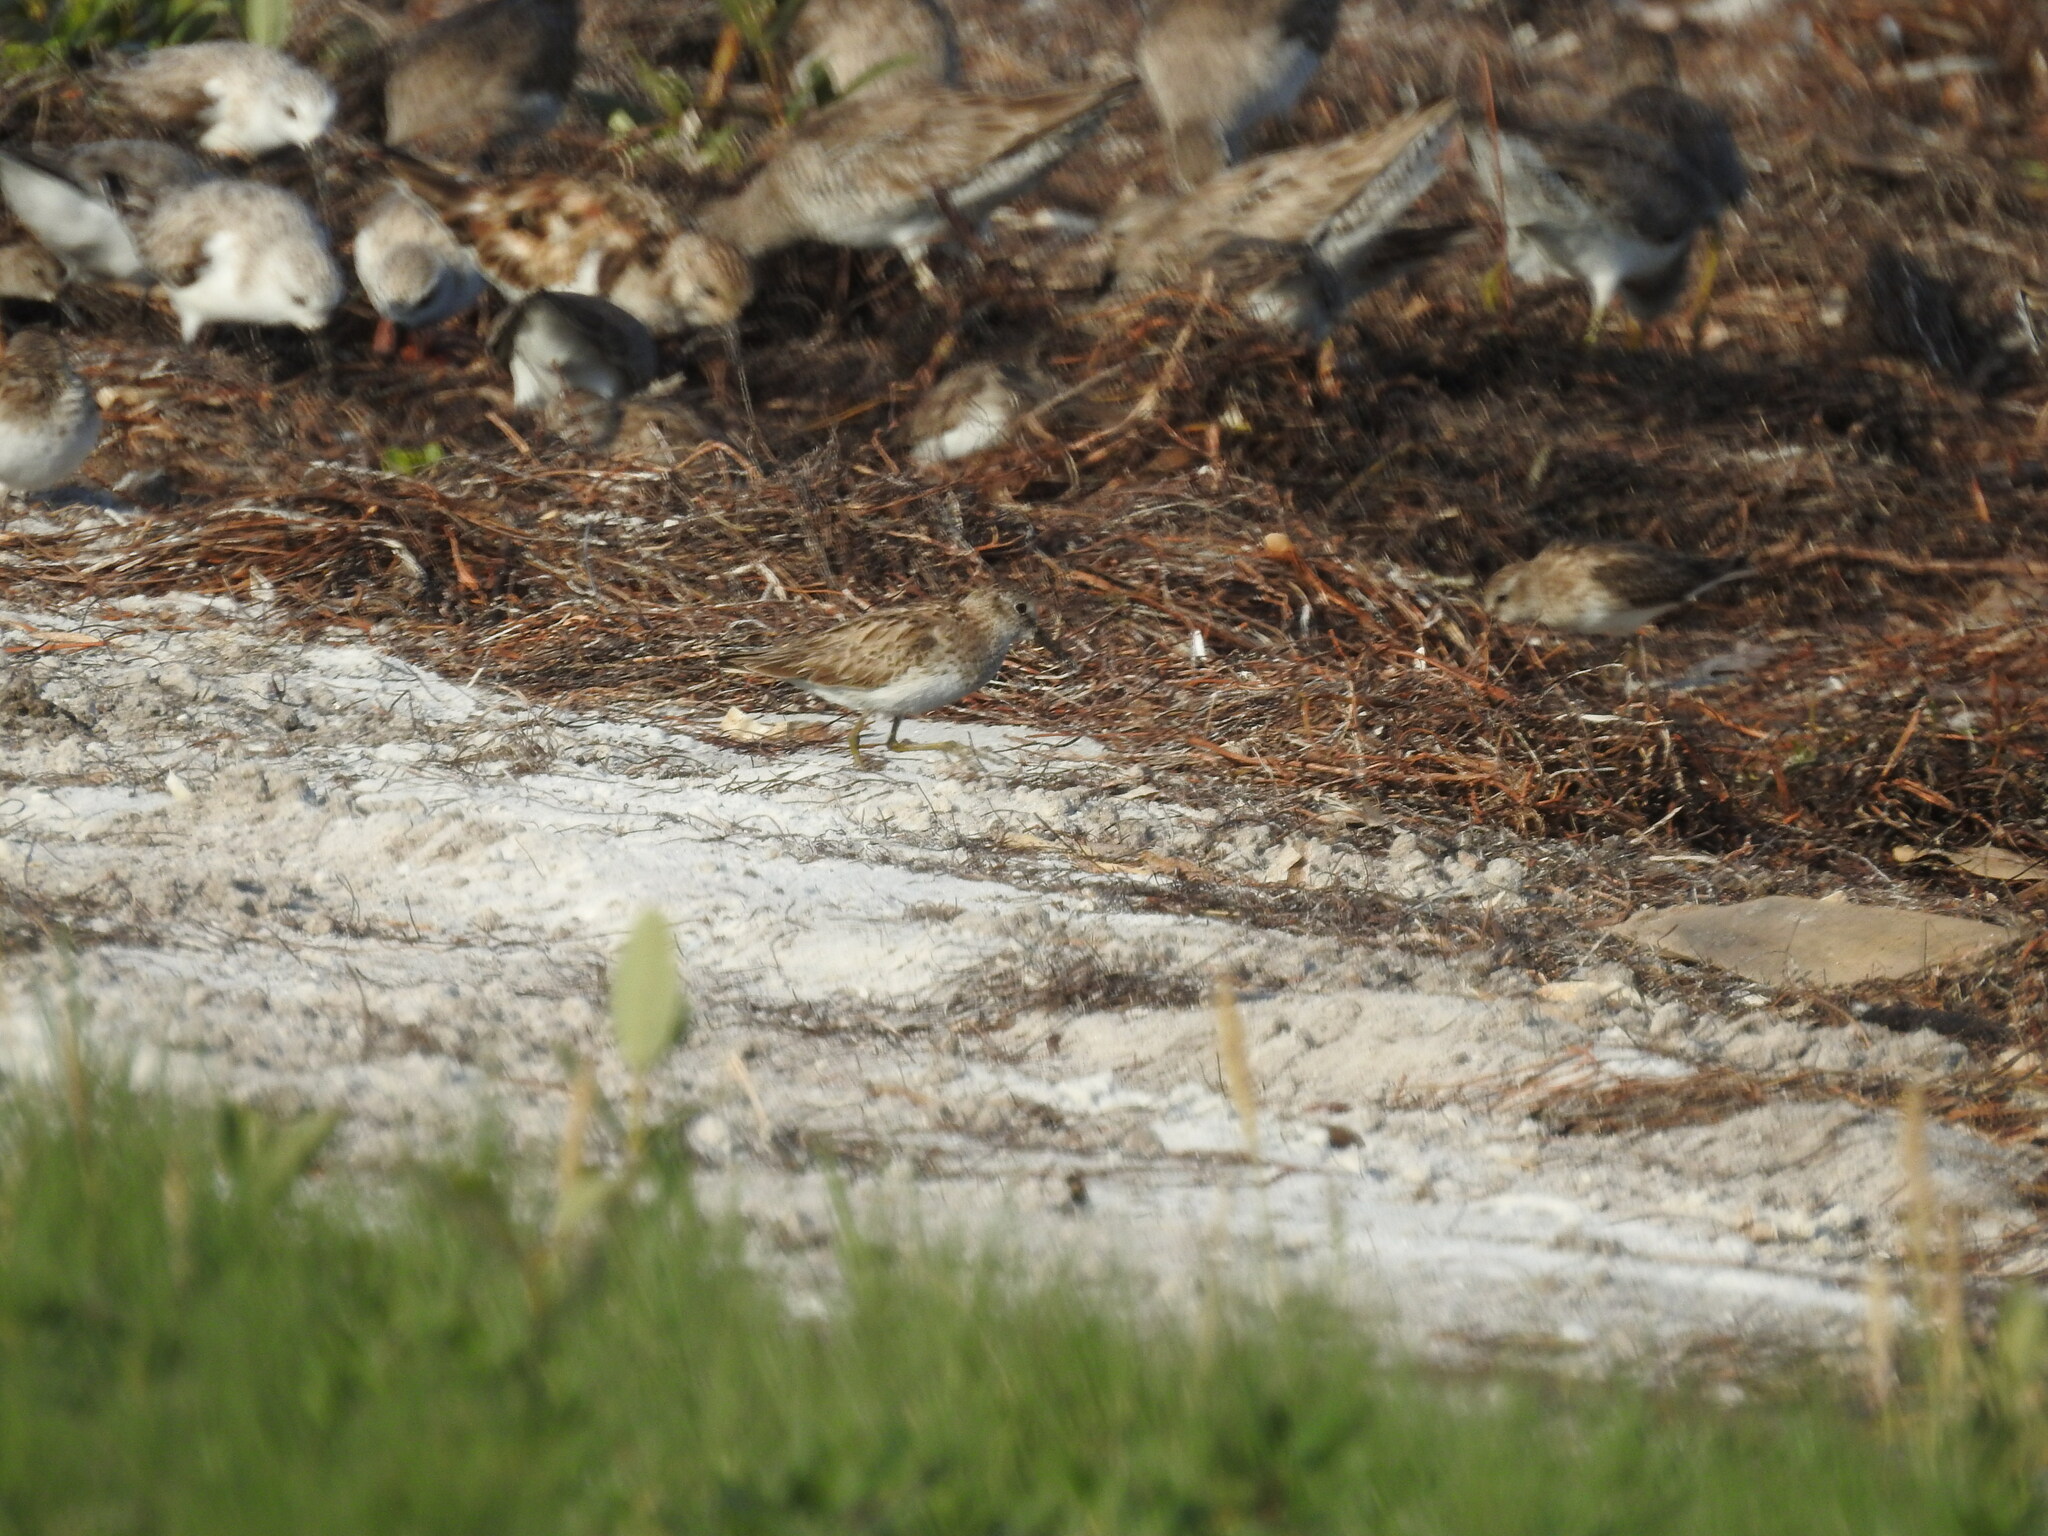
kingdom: Animalia
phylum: Chordata
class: Aves
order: Charadriiformes
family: Scolopacidae
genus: Calidris
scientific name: Calidris minutilla
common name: Least sandpiper
